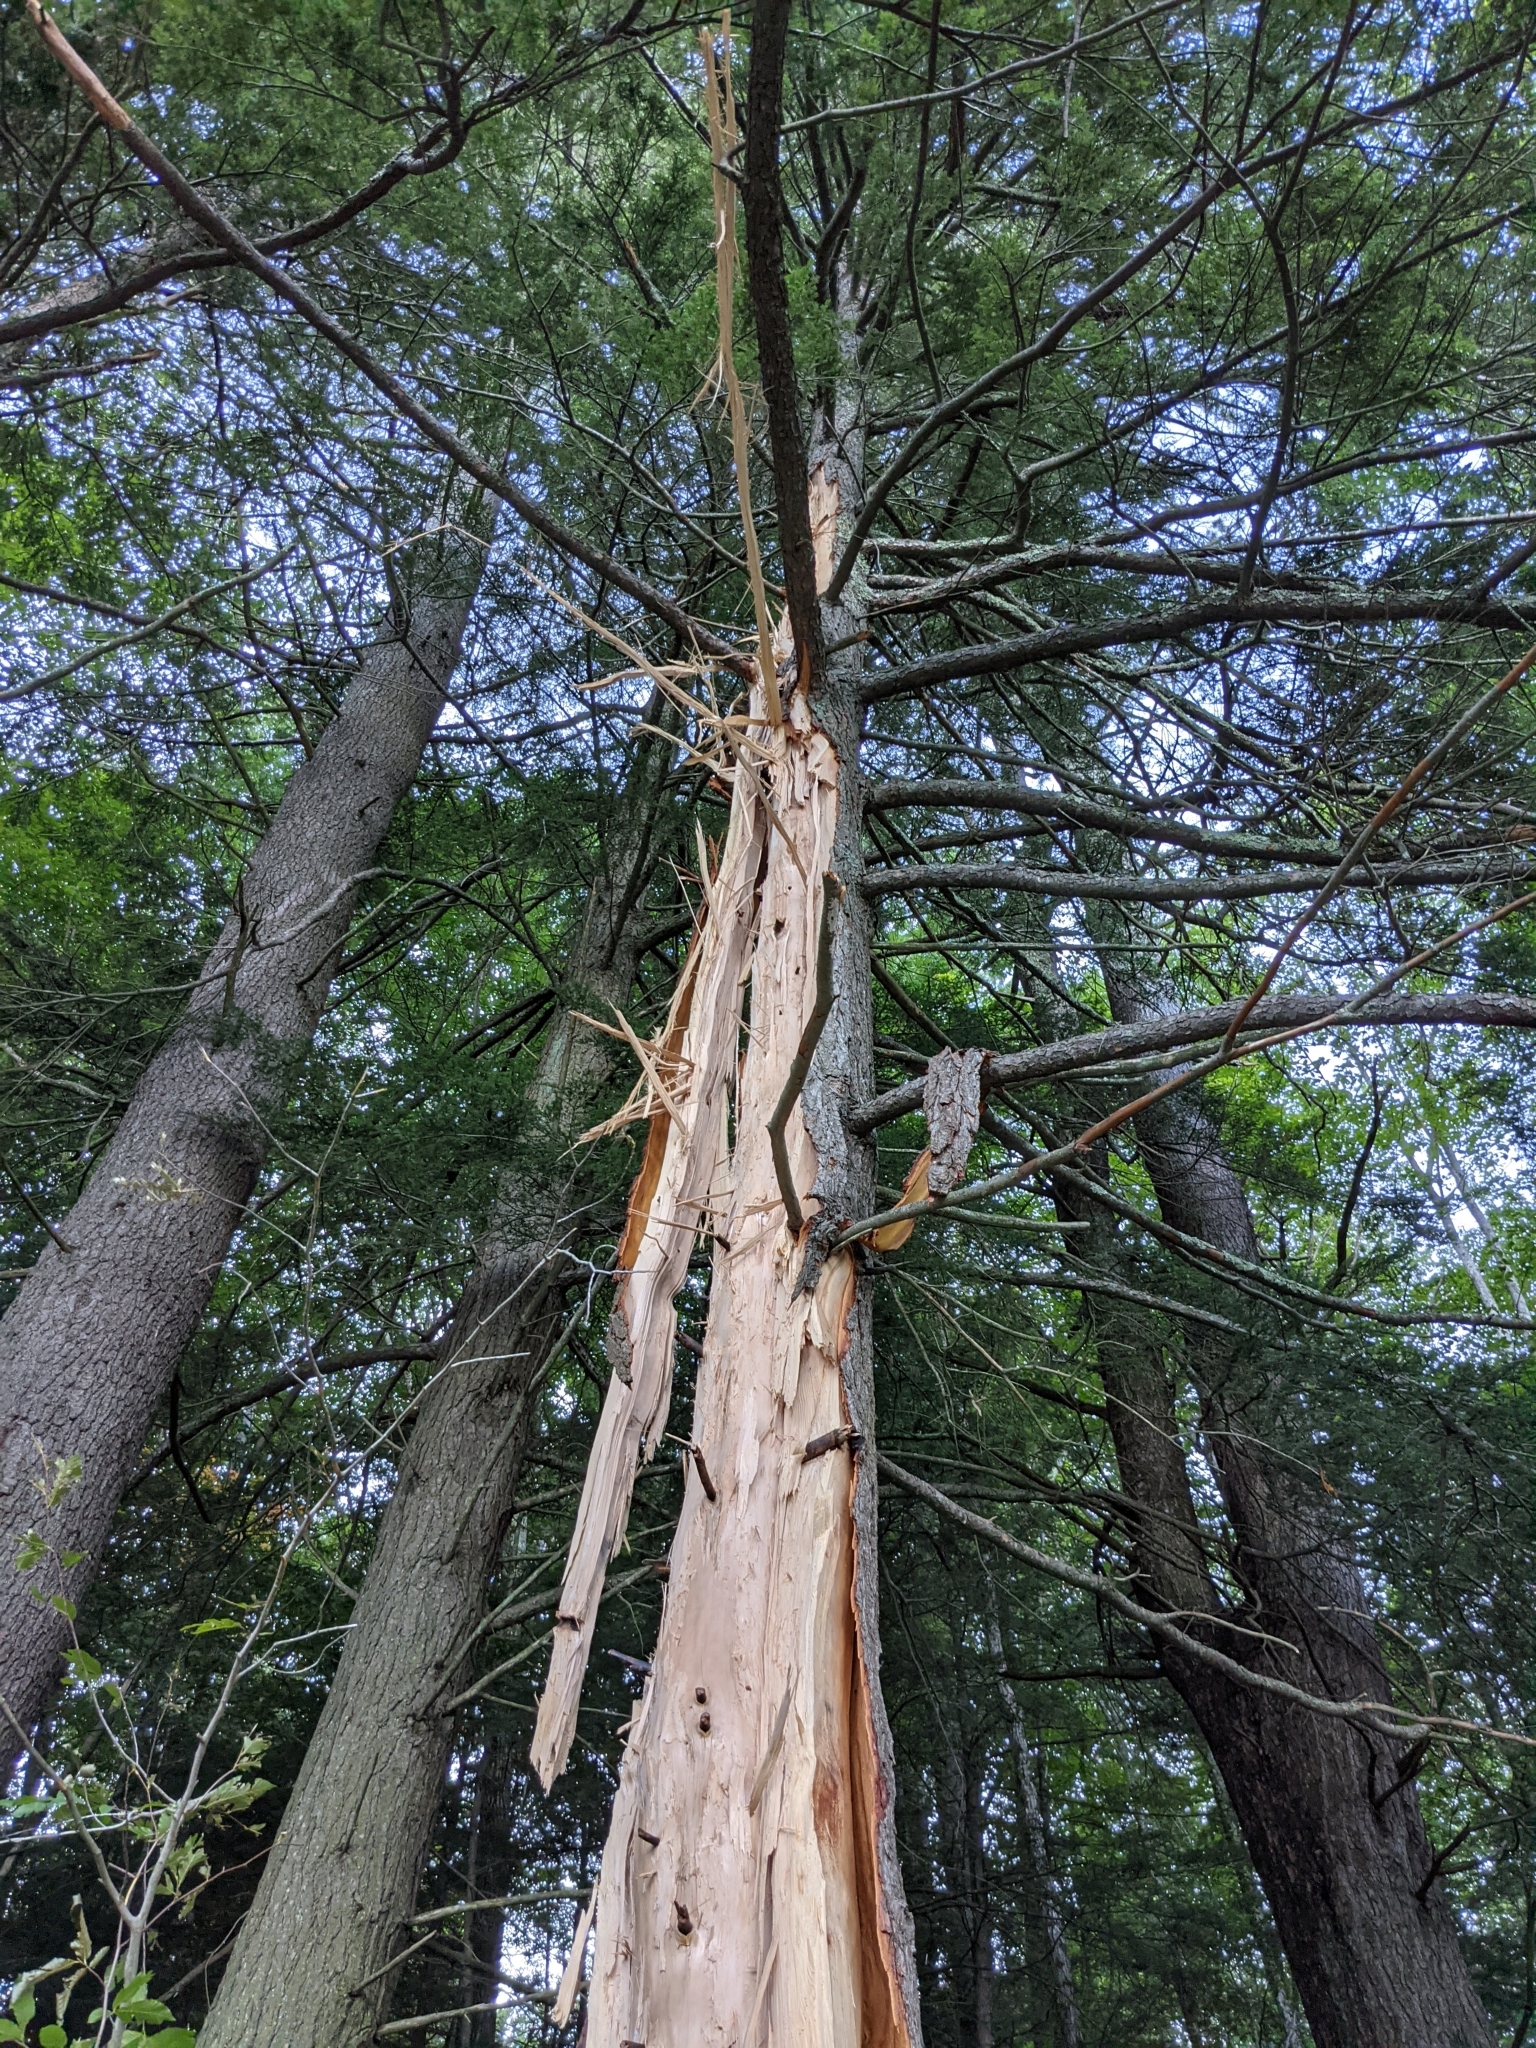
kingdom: Plantae
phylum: Tracheophyta
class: Pinopsida
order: Pinales
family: Pinaceae
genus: Tsuga
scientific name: Tsuga canadensis
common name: Eastern hemlock
